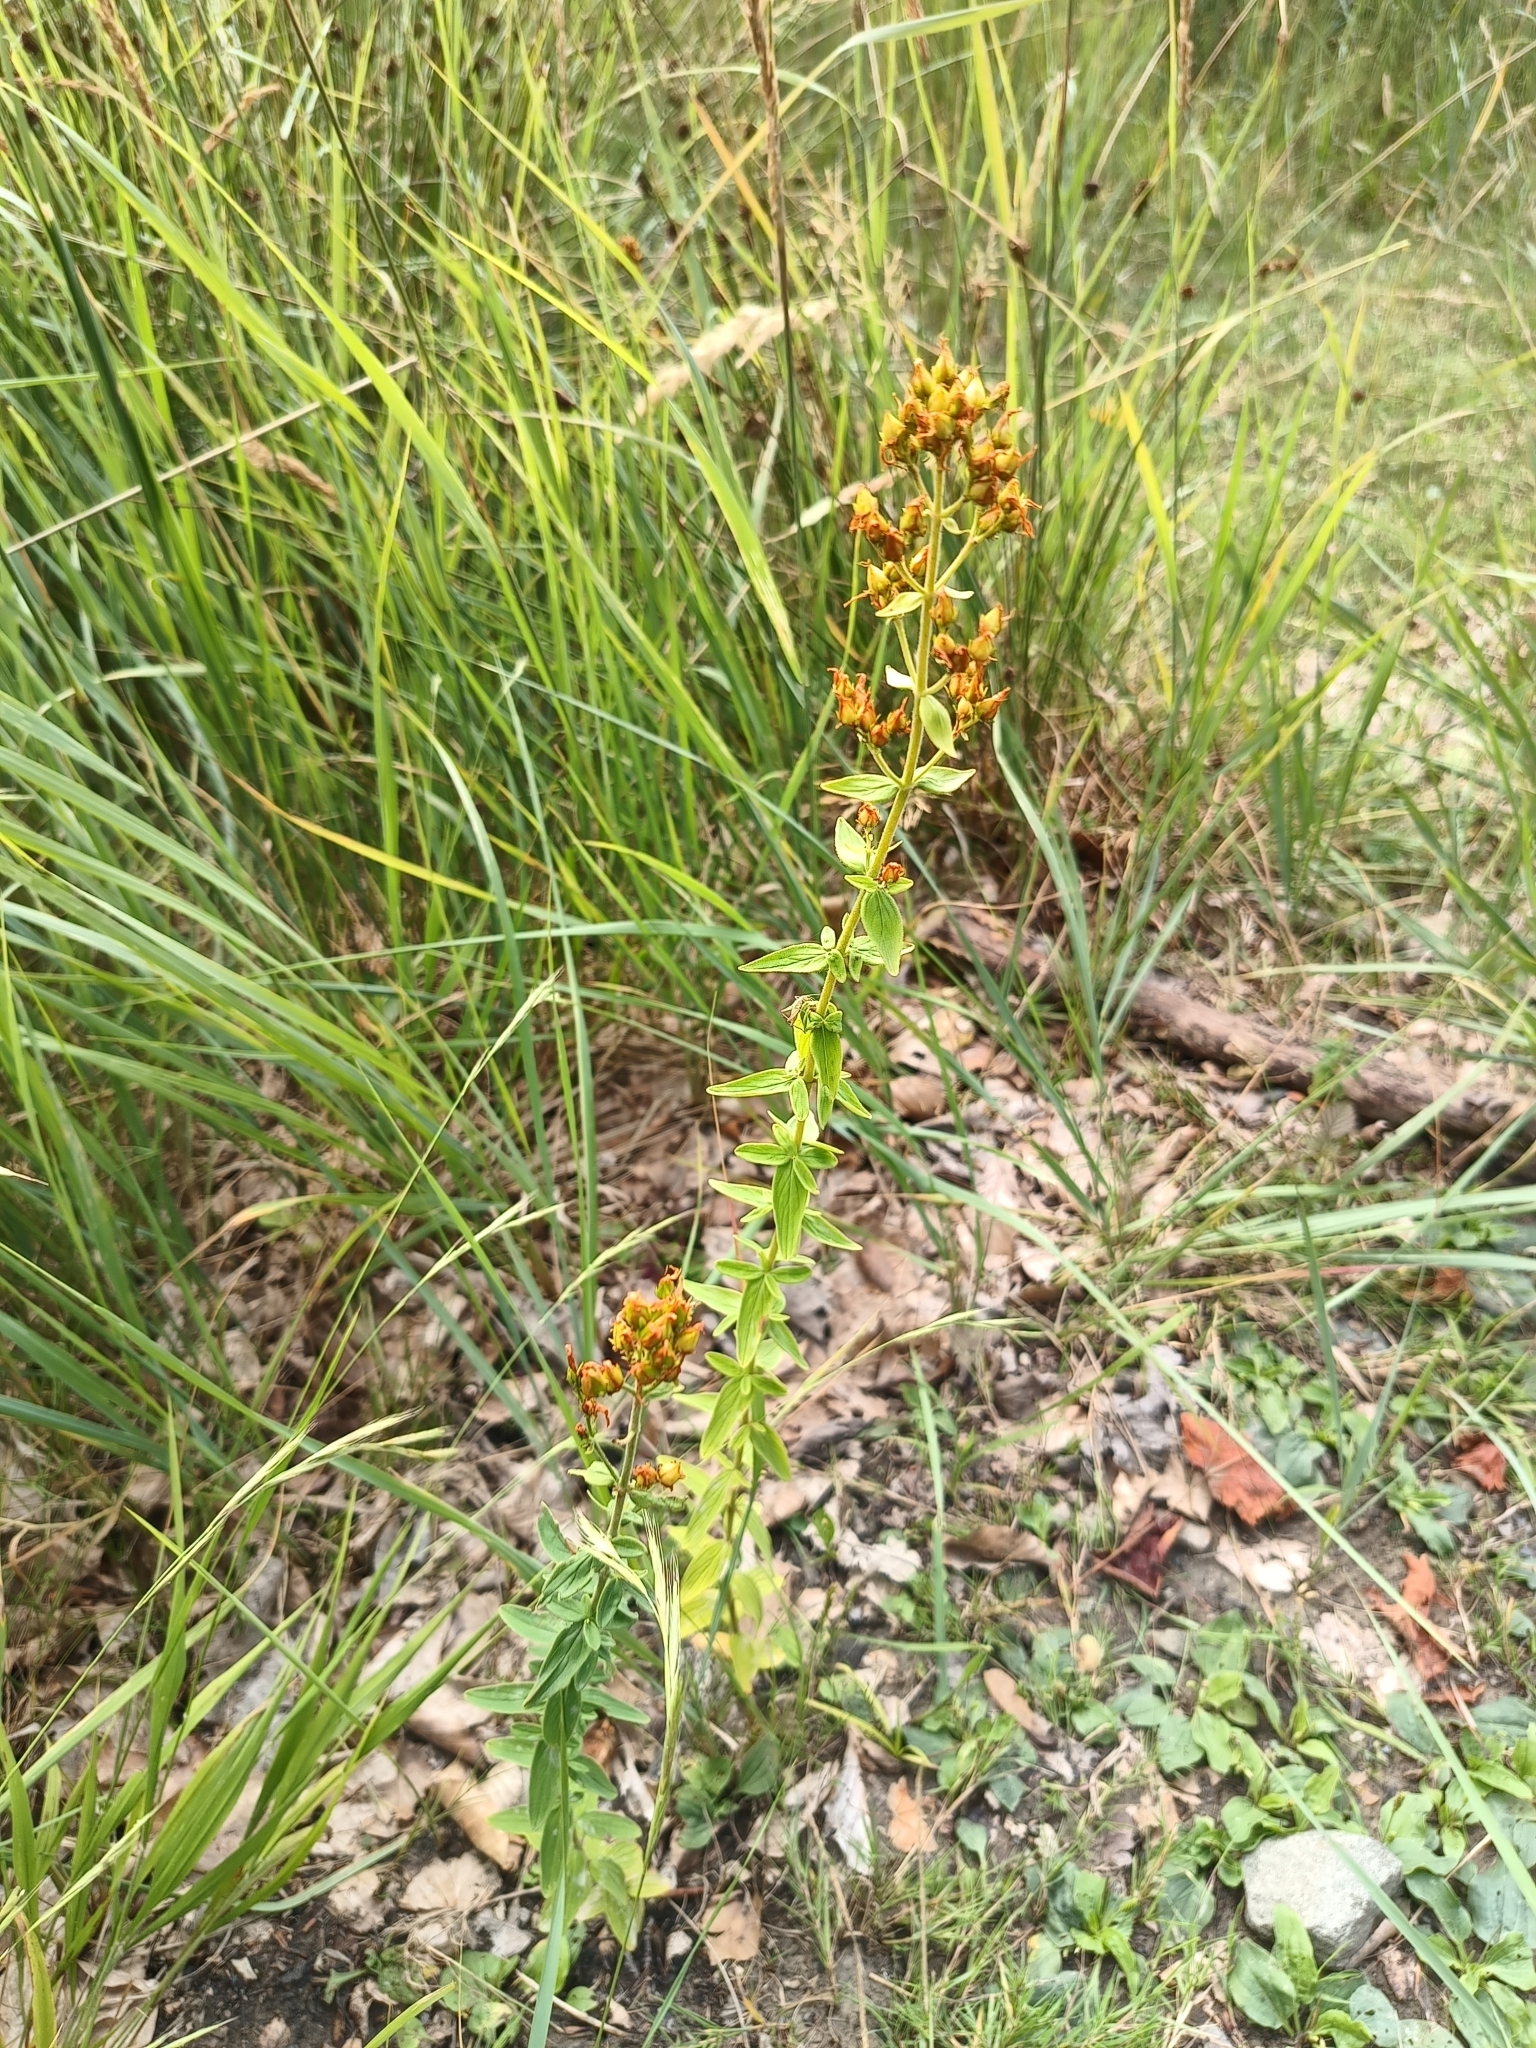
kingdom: Plantae
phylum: Tracheophyta
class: Magnoliopsida
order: Malpighiales
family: Hypericaceae
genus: Hypericum
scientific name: Hypericum hirsutum
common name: Hairy st. john's-wort
